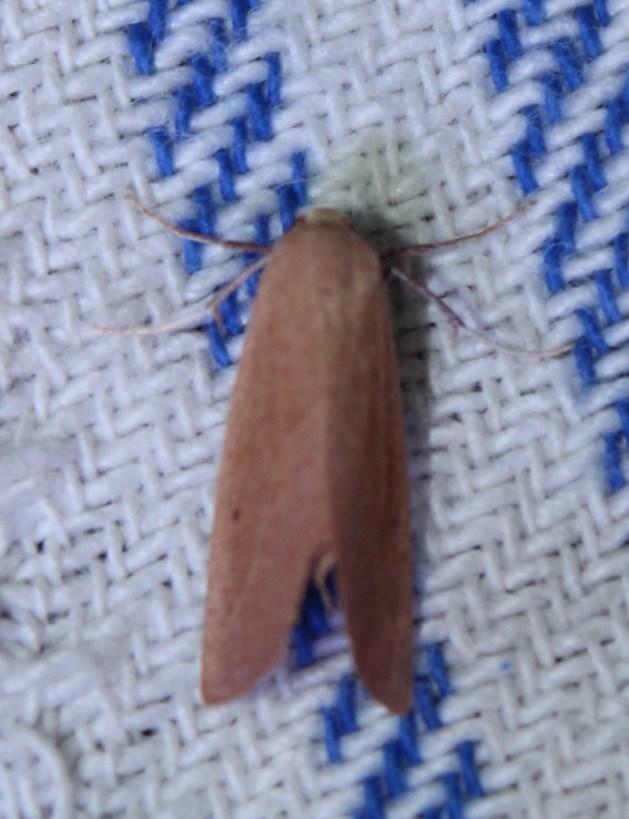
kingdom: Animalia
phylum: Arthropoda
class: Insecta
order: Lepidoptera
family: Geometridae
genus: Mauna
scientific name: Mauna ardescens
